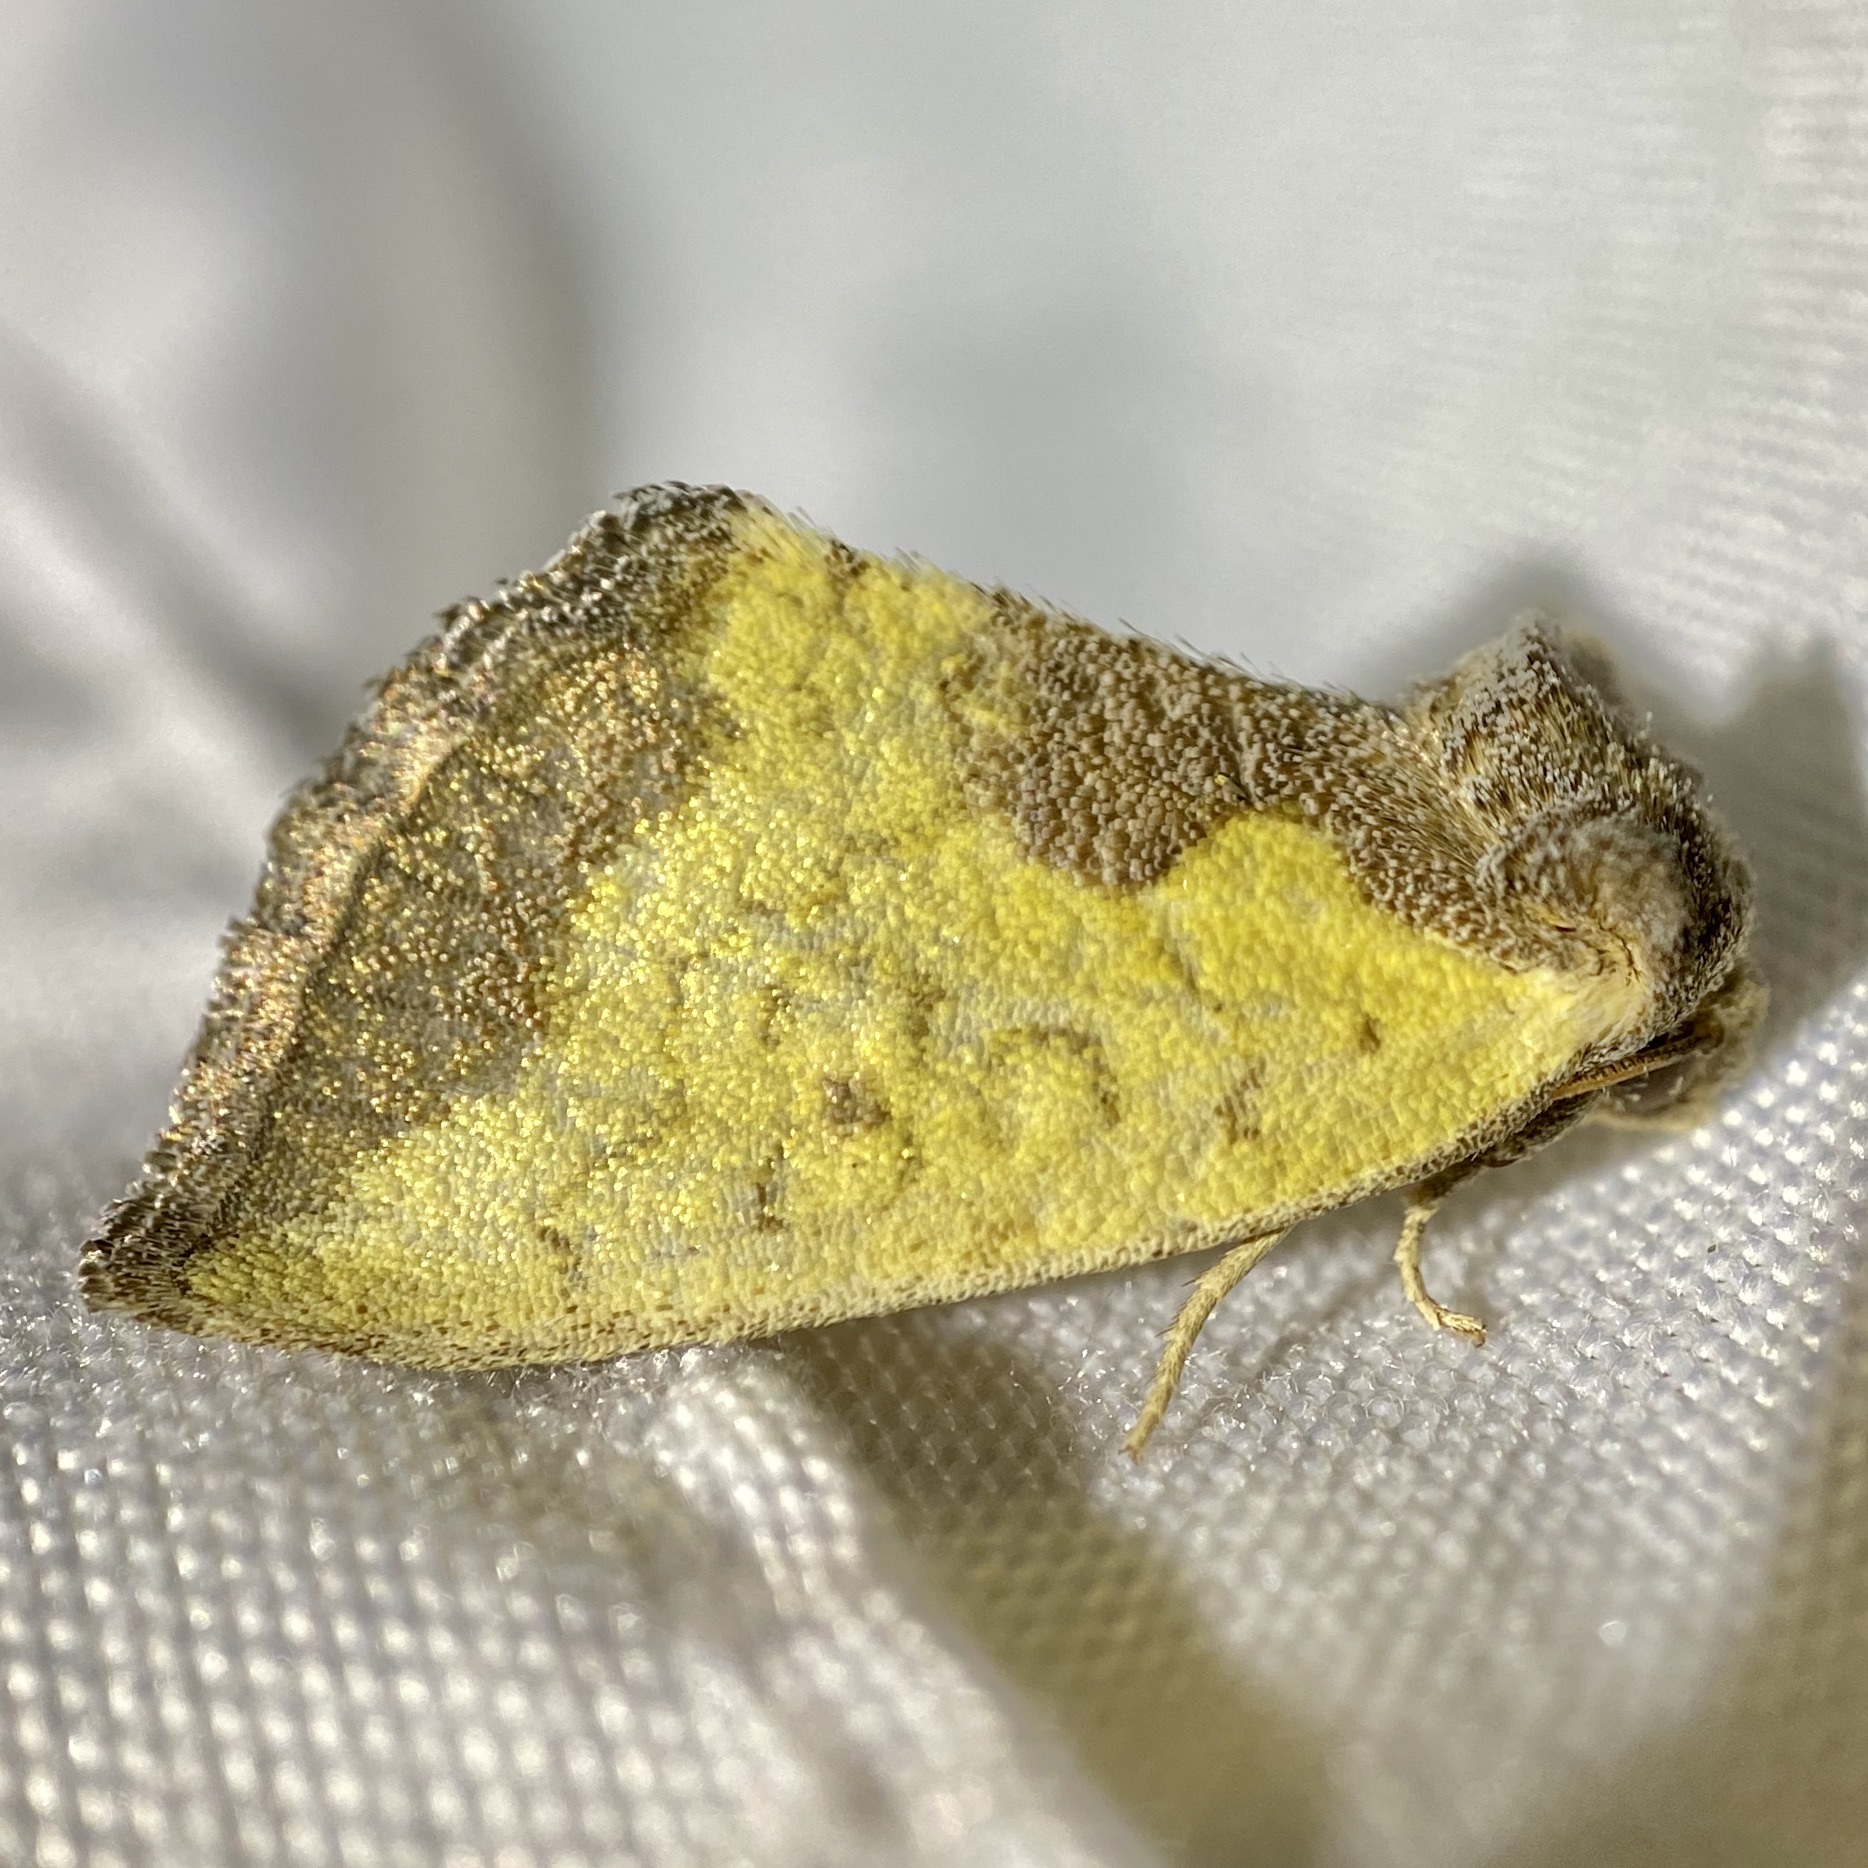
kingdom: Animalia
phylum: Arthropoda
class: Insecta
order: Lepidoptera
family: Noctuidae
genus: Stiria
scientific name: Stiria satana
